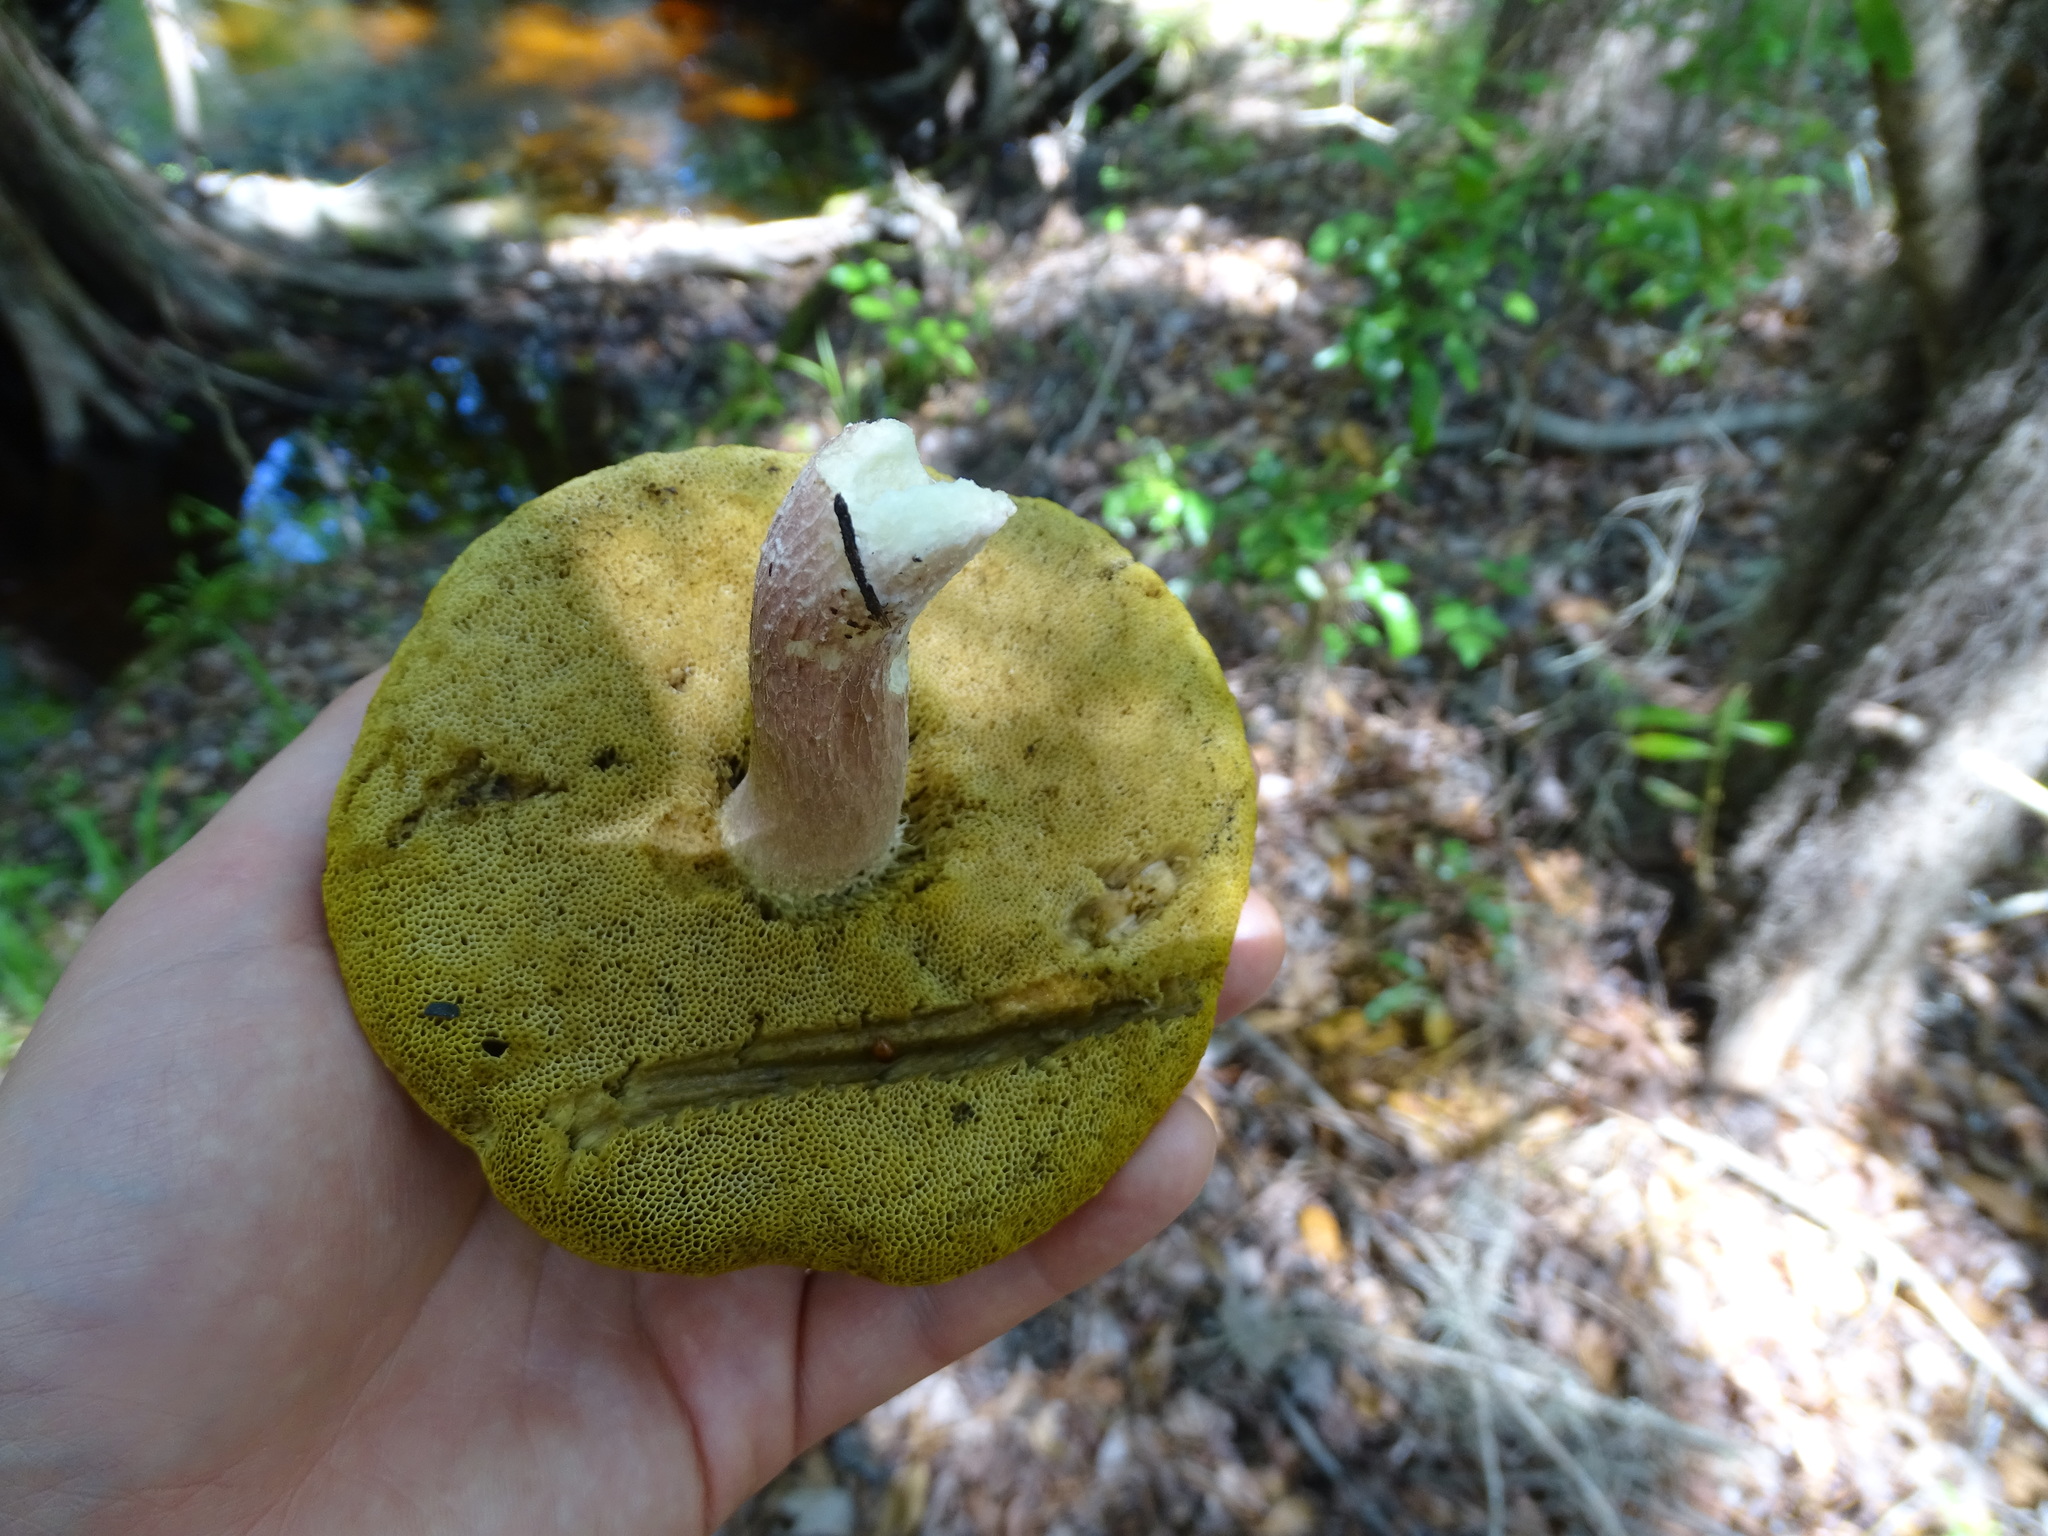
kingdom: Fungi
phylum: Basidiomycota
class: Agaricomycetes
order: Boletales
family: Boletaceae
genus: Xanthoconium
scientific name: Xanthoconium separans
